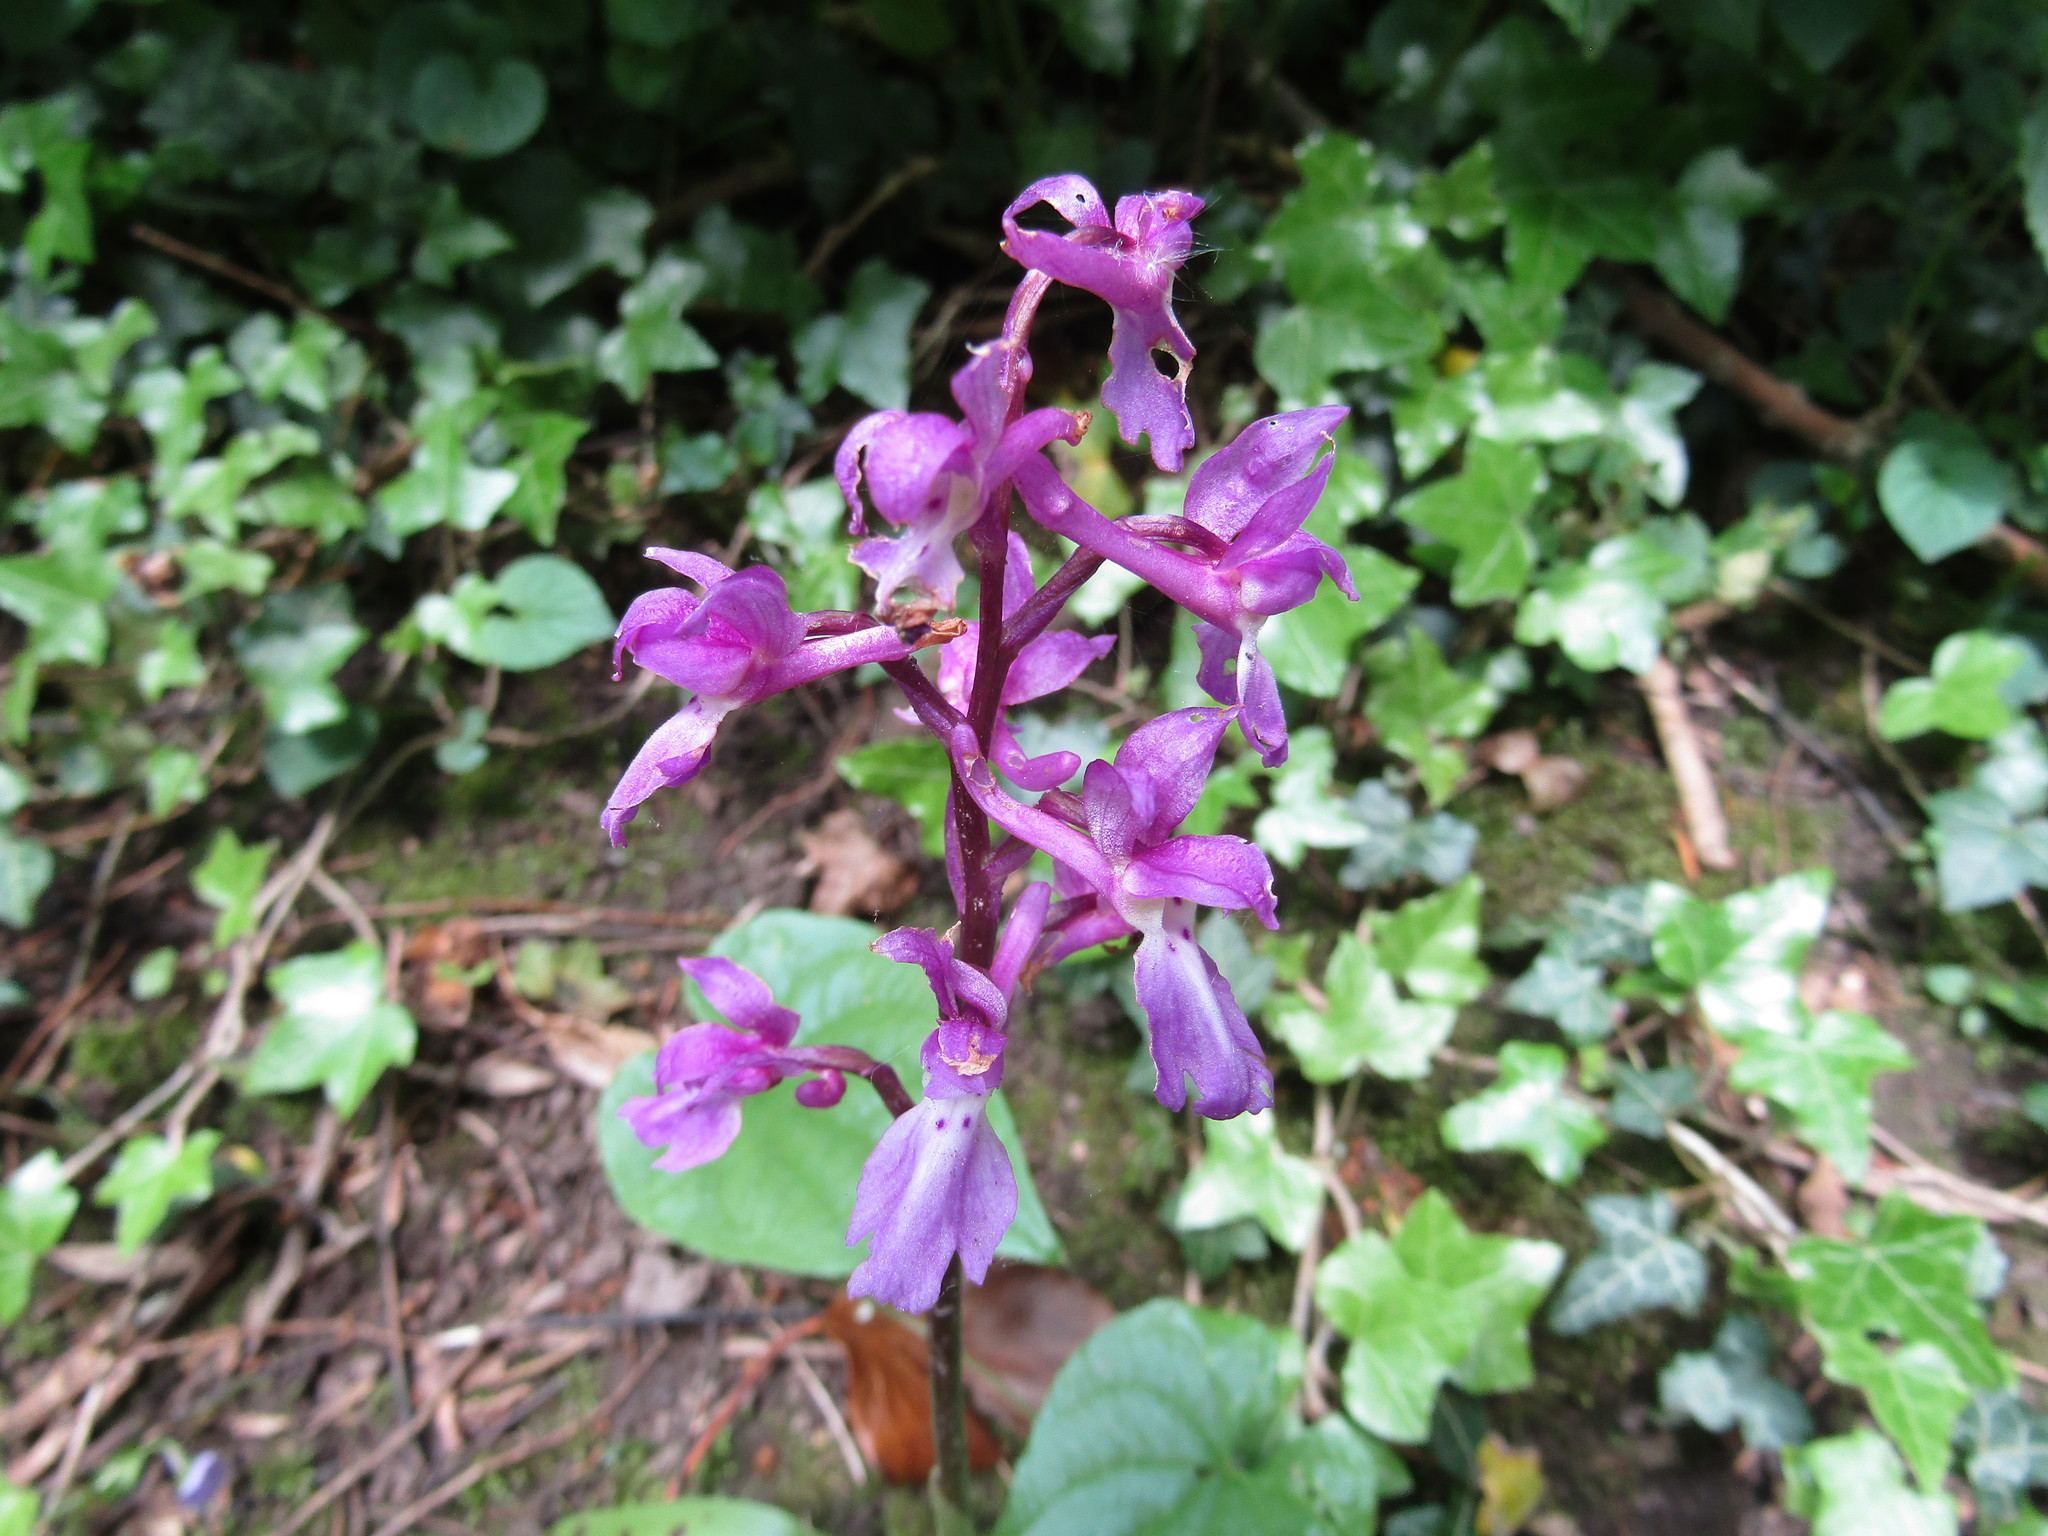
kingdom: Plantae
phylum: Tracheophyta
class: Liliopsida
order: Asparagales
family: Orchidaceae
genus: Orchis
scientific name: Orchis mascula
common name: Early-purple orchid
